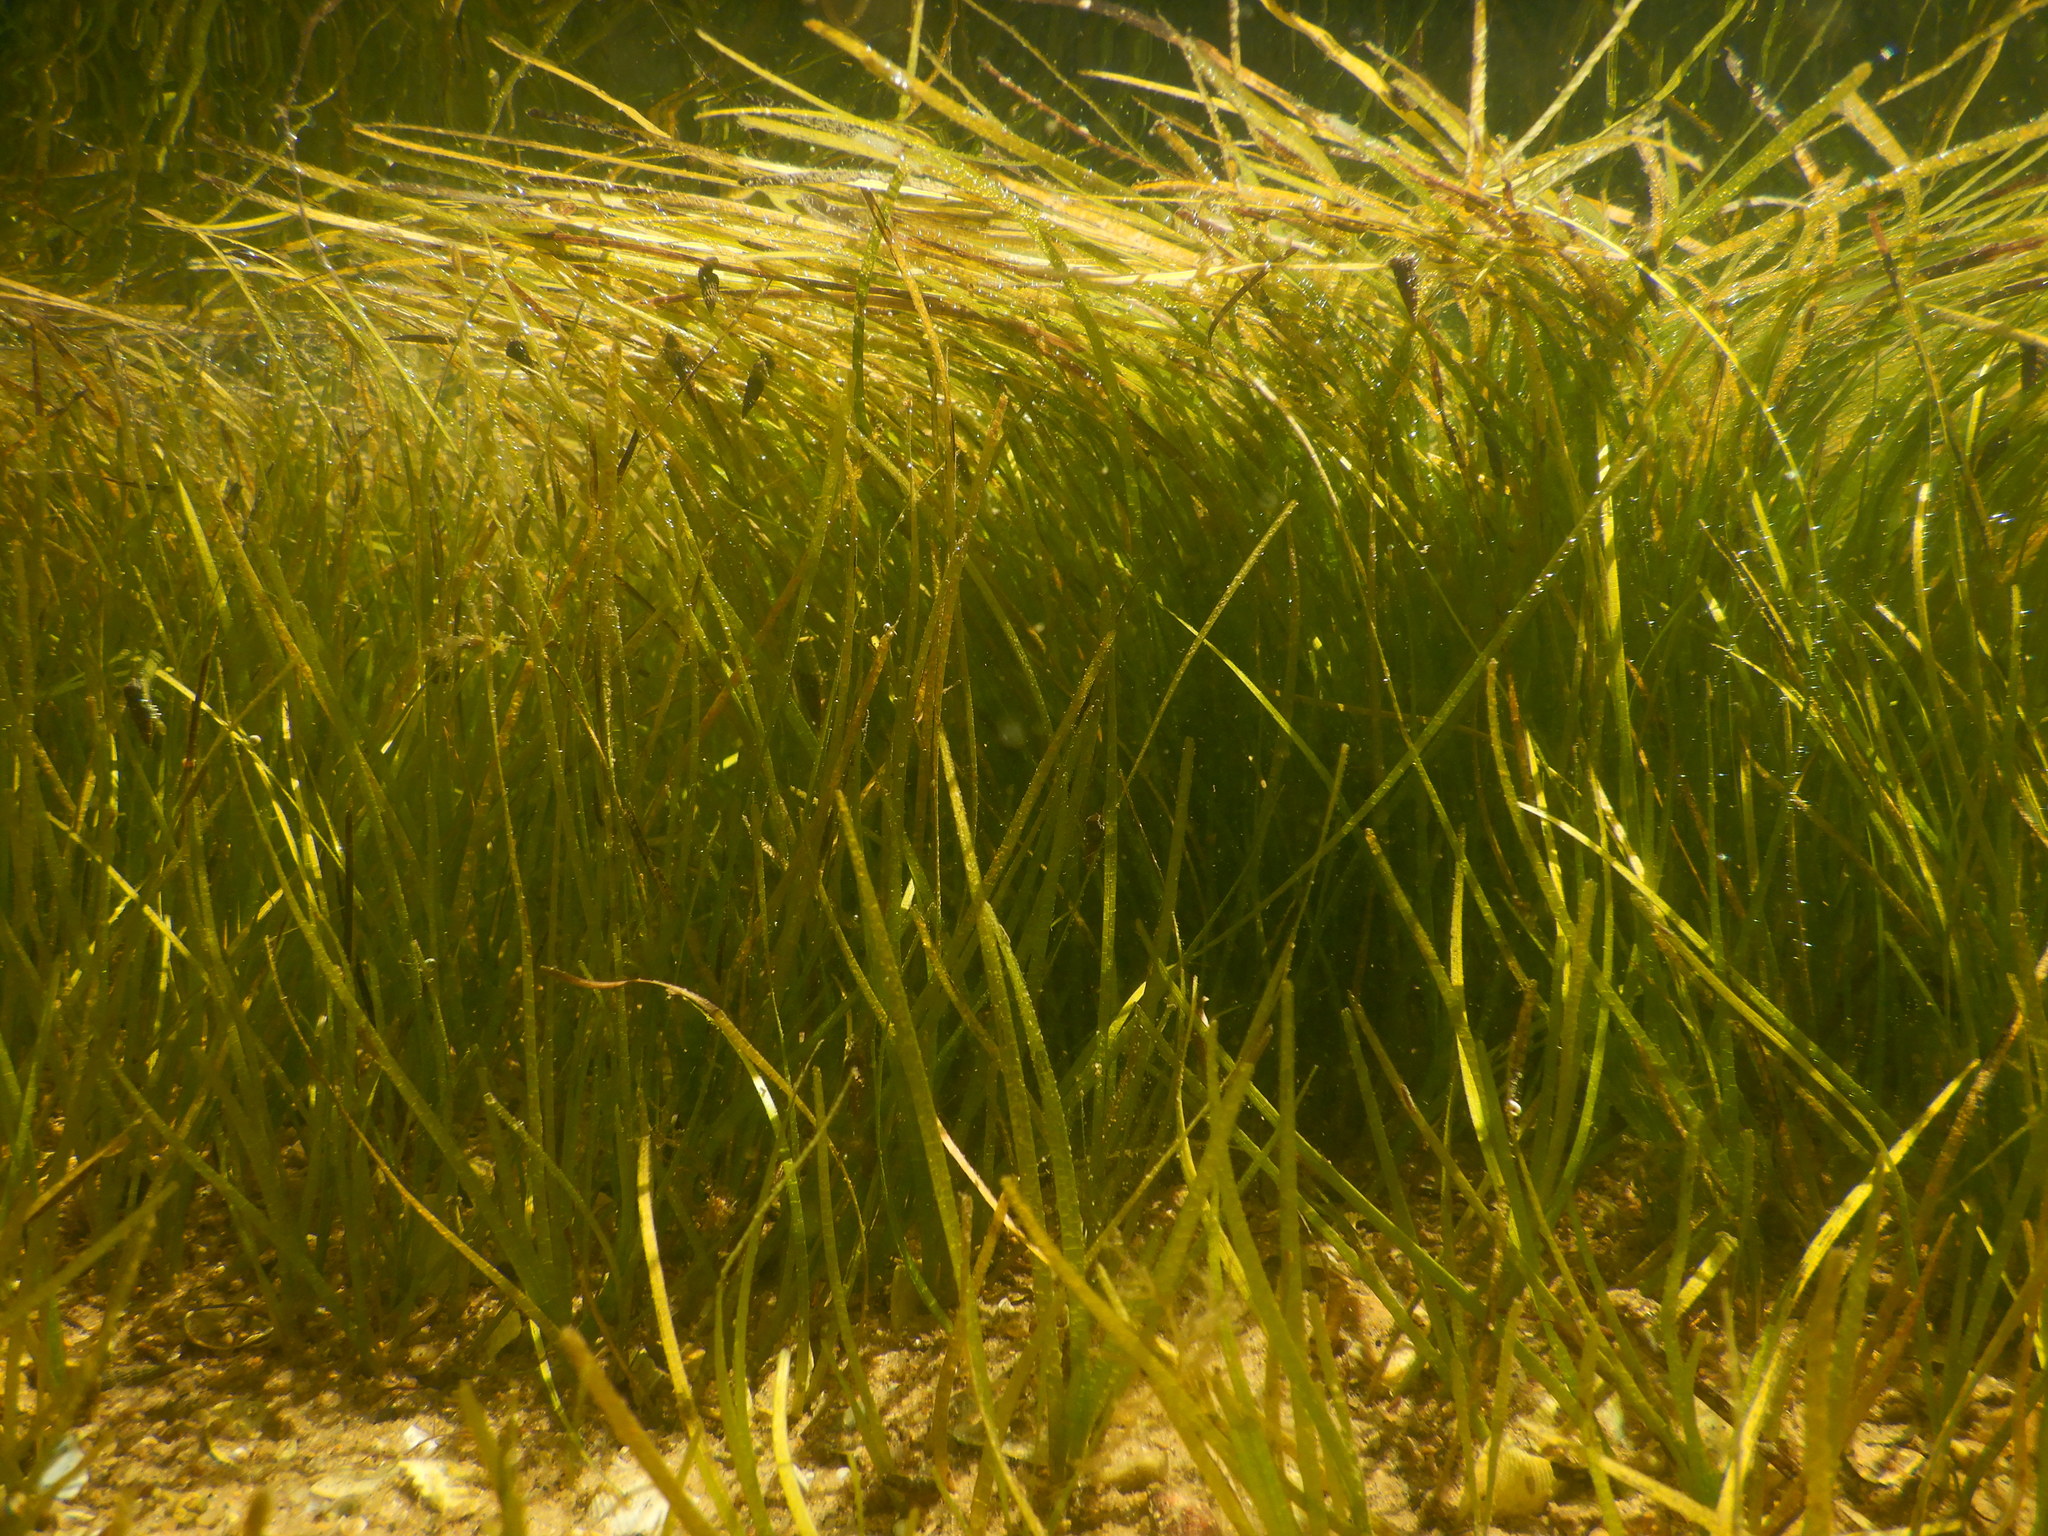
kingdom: Plantae
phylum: Tracheophyta
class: Liliopsida
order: Alismatales
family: Zosteraceae
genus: Zostera
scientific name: Zostera noltii
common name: Dwarf eelgrass
